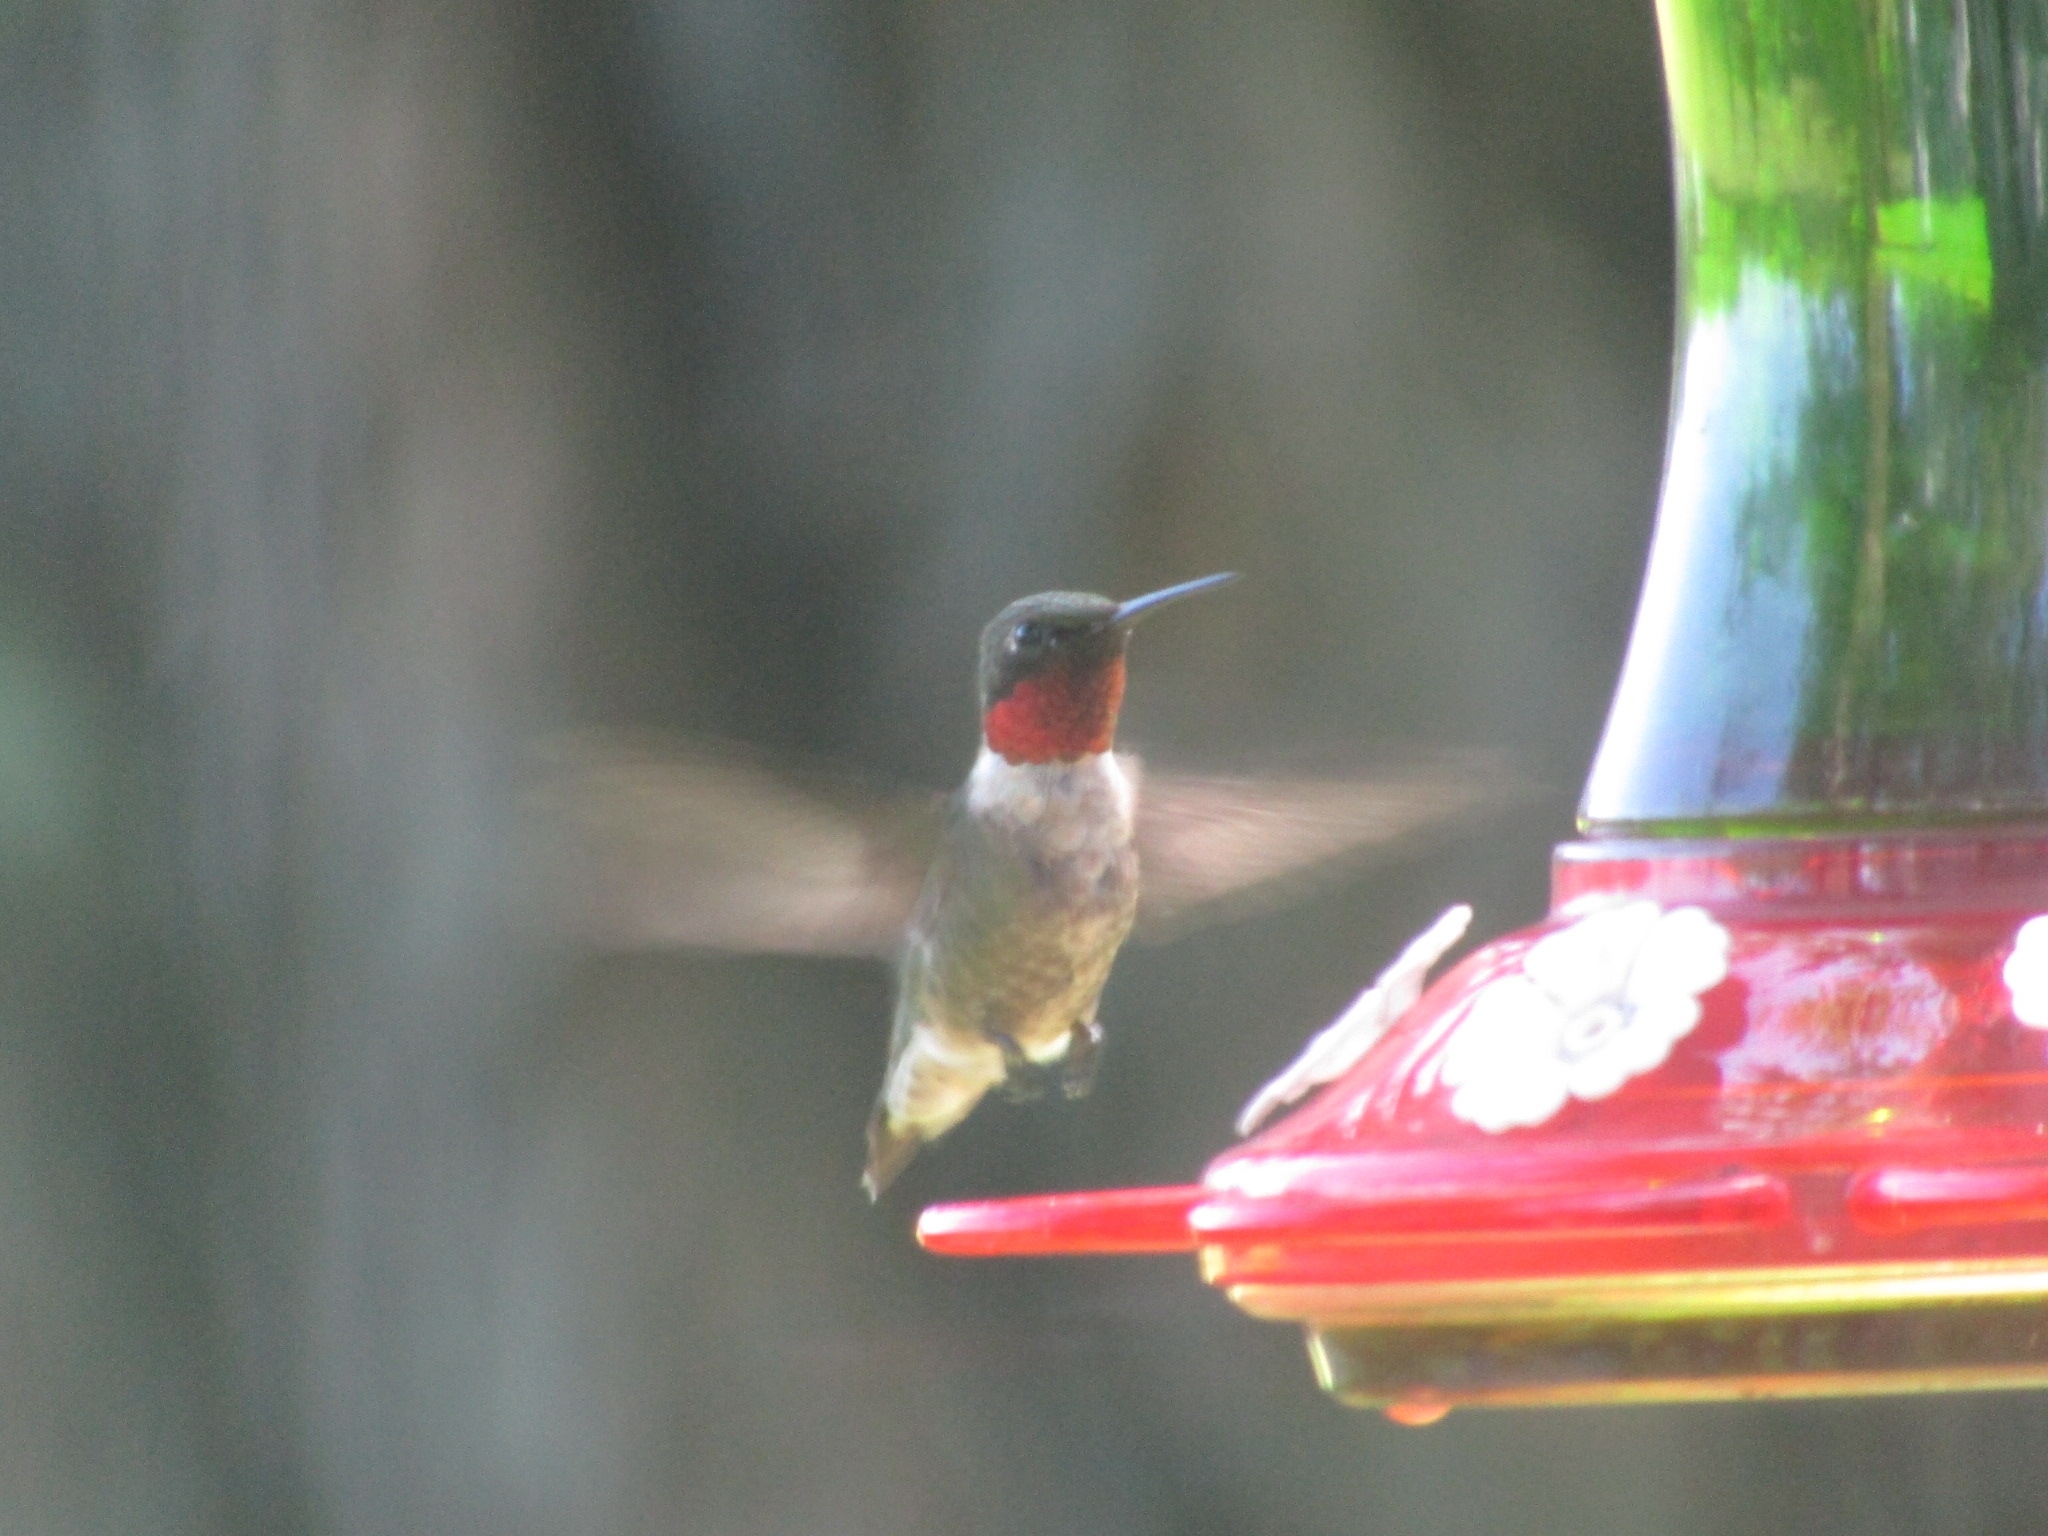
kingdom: Animalia
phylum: Chordata
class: Aves
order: Apodiformes
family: Trochilidae
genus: Archilochus
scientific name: Archilochus colubris
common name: Ruby-throated hummingbird
